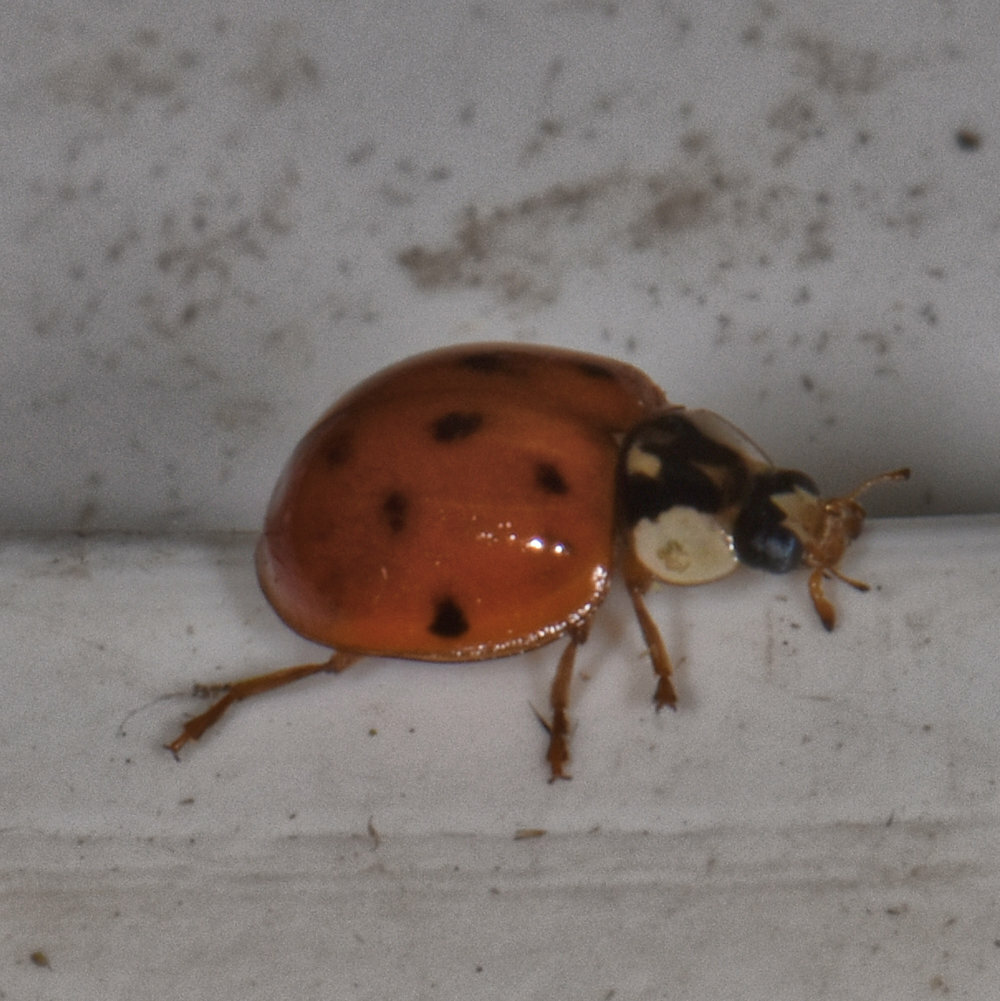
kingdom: Animalia
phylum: Arthropoda
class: Insecta
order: Coleoptera
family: Coccinellidae
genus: Harmonia
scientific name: Harmonia axyridis
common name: Harlequin ladybird
